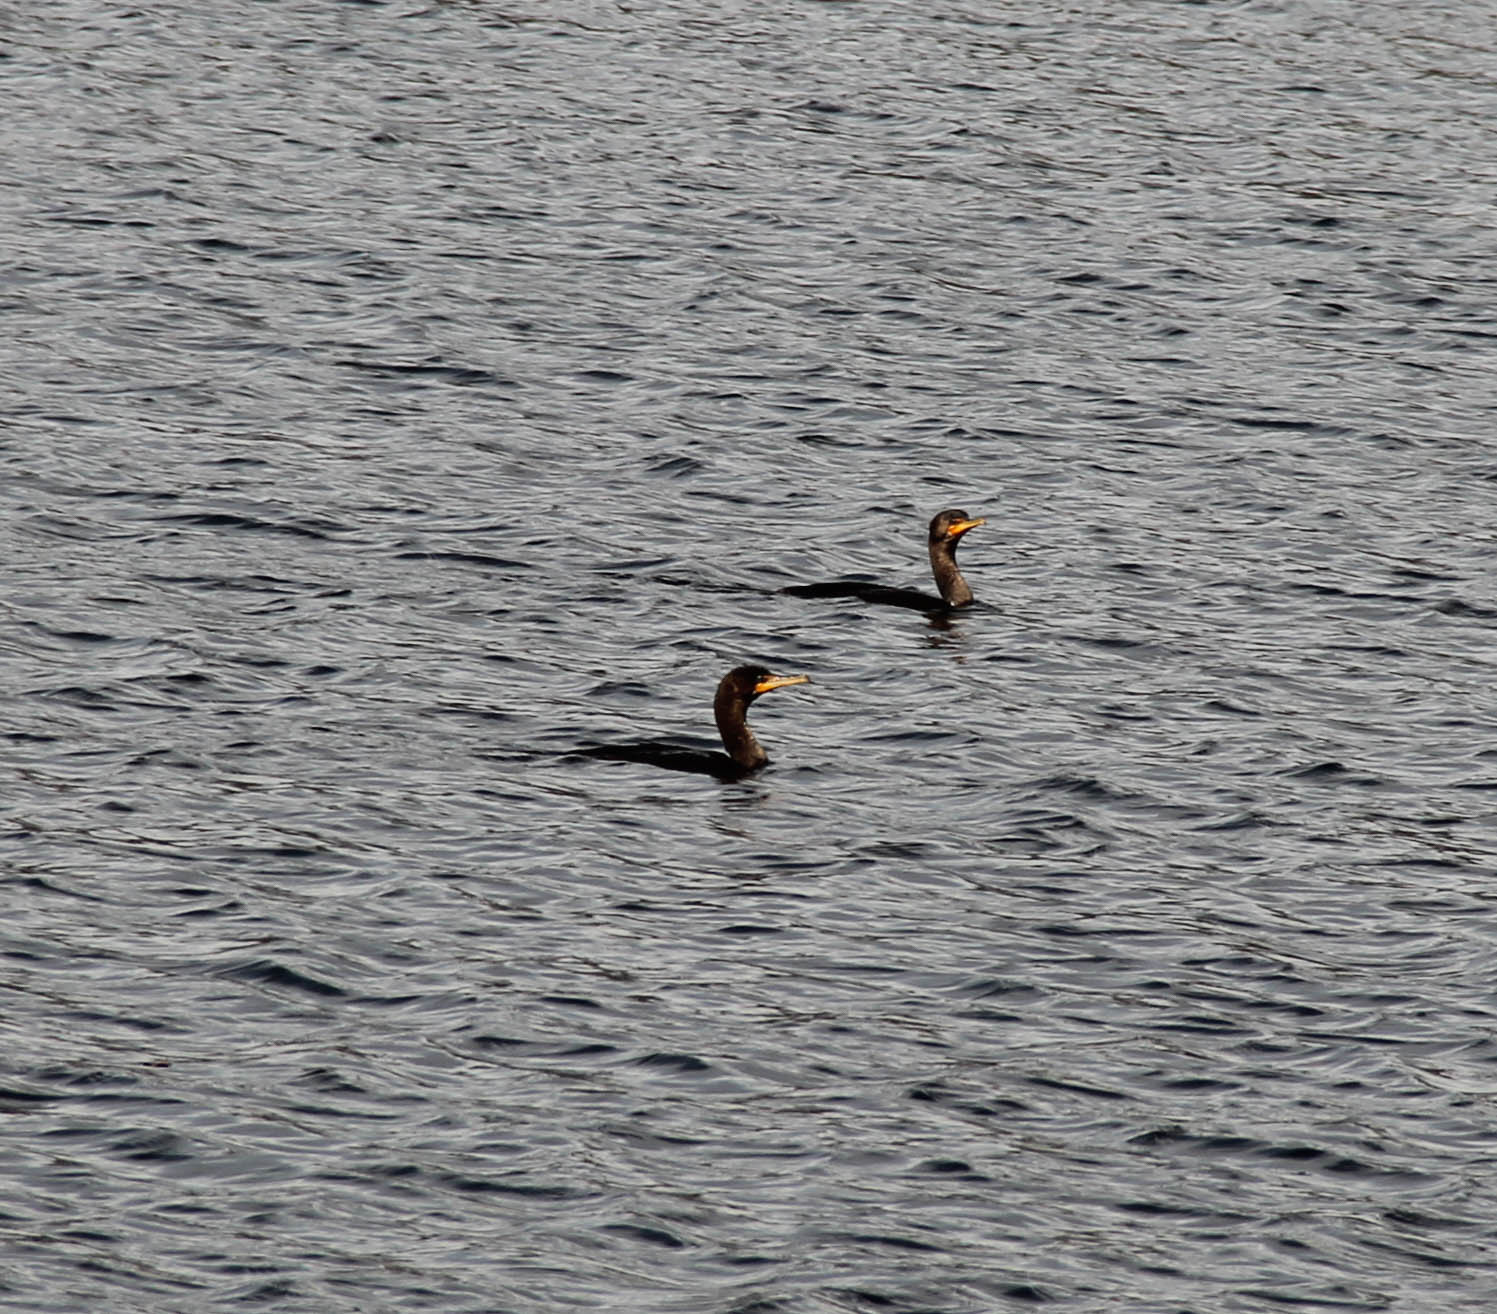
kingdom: Animalia
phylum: Chordata
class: Aves
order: Suliformes
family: Phalacrocoracidae
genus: Phalacrocorax
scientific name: Phalacrocorax auritus
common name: Double-crested cormorant
